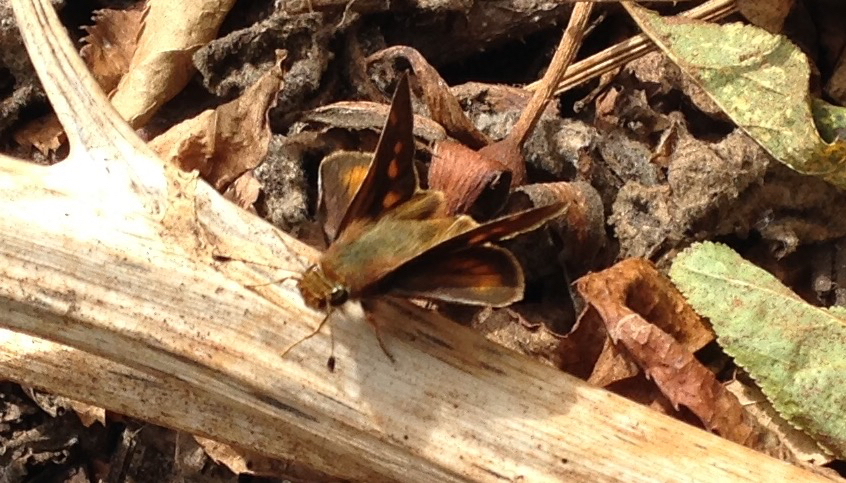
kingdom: Animalia
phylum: Arthropoda
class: Insecta
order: Lepidoptera
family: Hesperiidae
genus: Lon
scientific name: Lon melane
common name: Umber skipper
